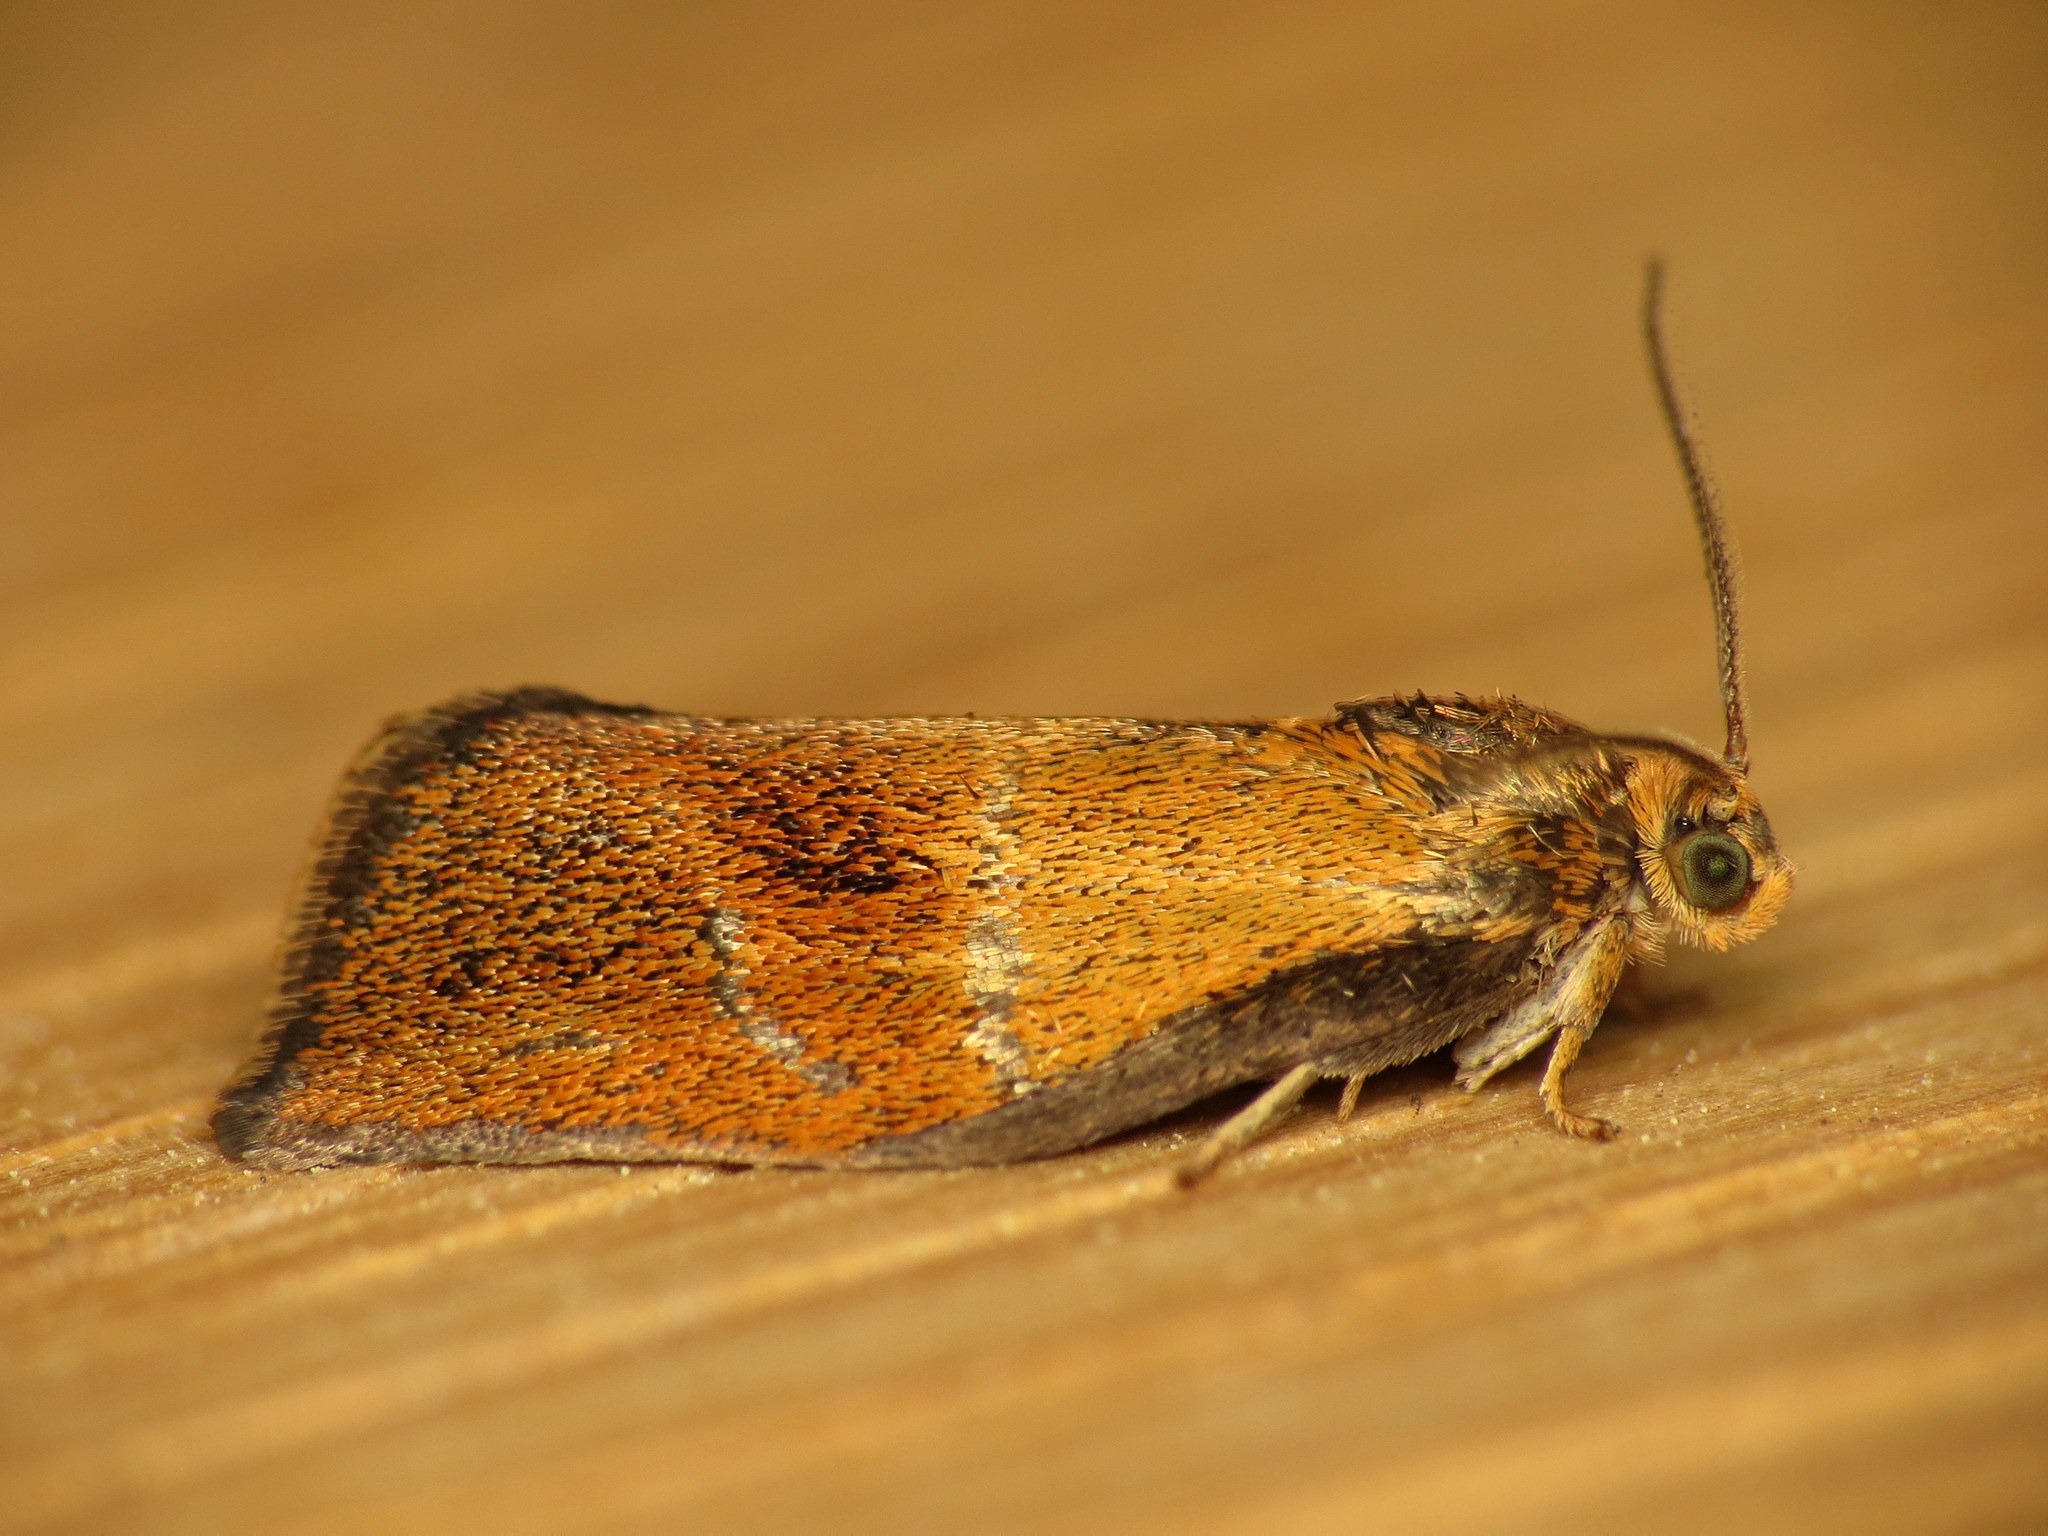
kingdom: Animalia
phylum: Arthropoda
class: Insecta
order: Lepidoptera
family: Tortricidae
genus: Ptycholoma
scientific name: Ptycholoma lecheana
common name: Leches twist moth
